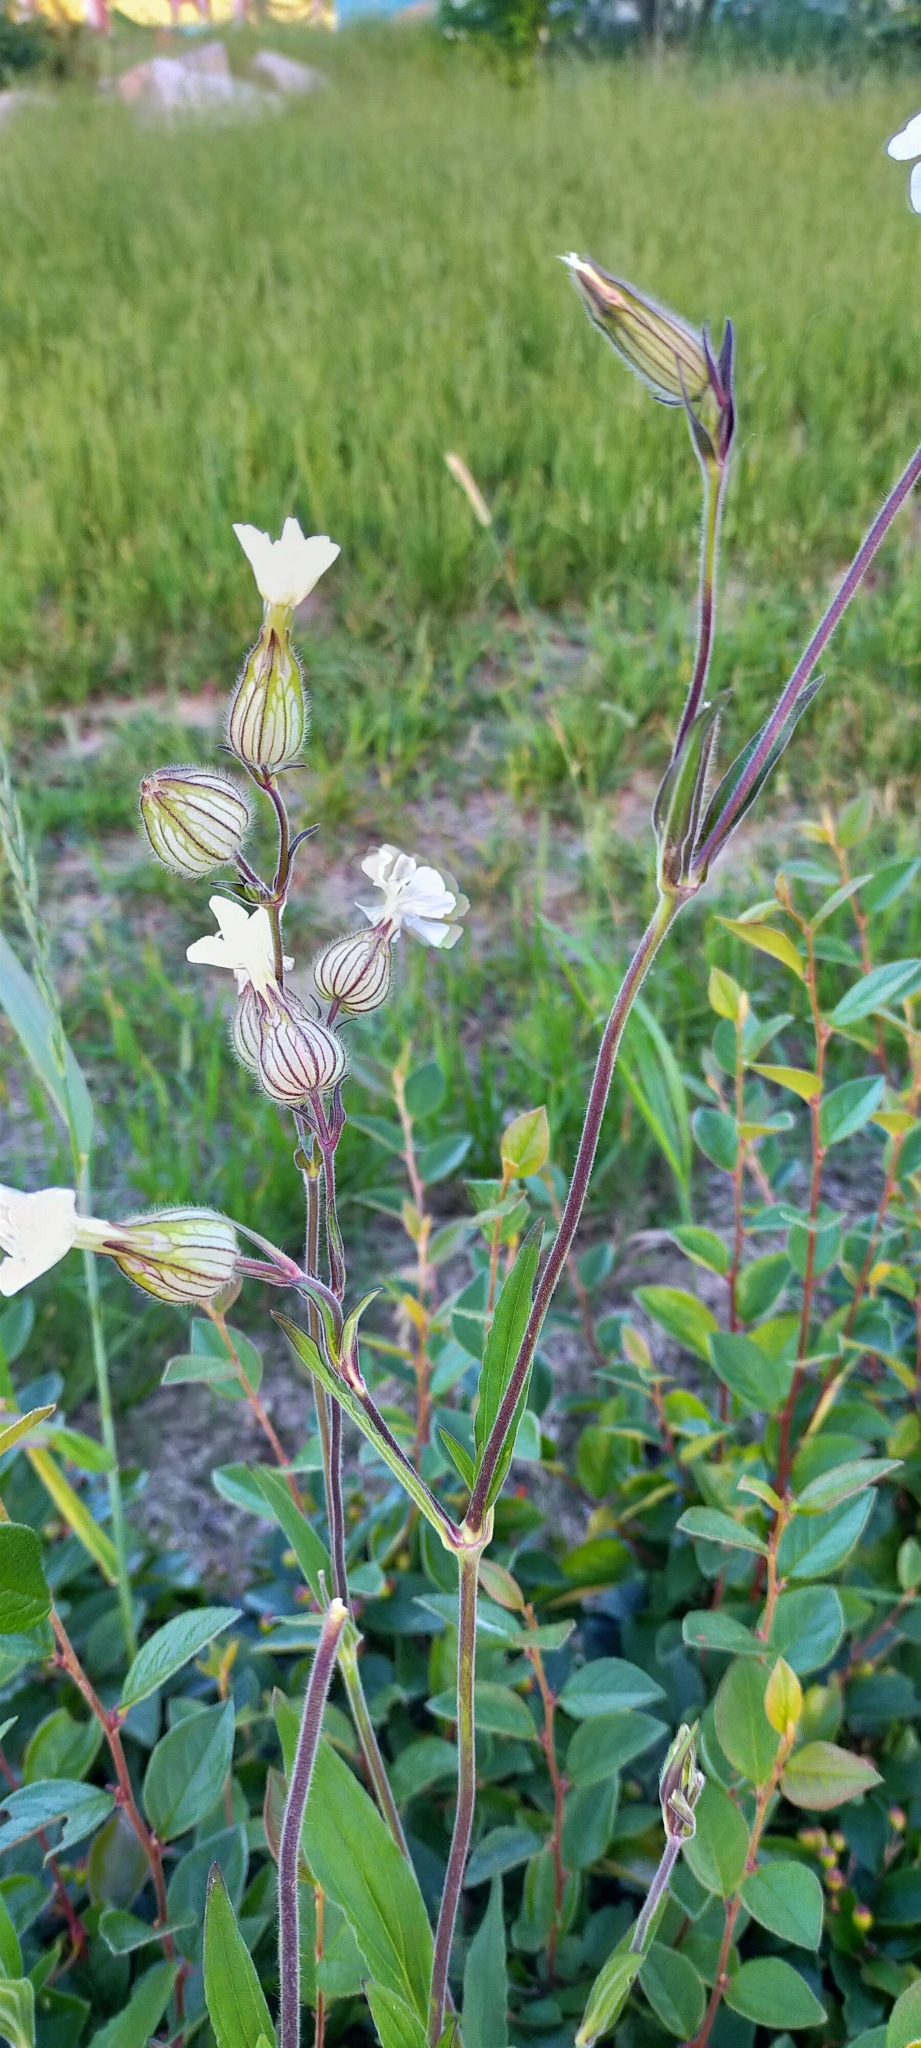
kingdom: Plantae
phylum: Tracheophyta
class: Magnoliopsida
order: Caryophyllales
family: Caryophyllaceae
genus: Silene
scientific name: Silene latifolia
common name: White campion
